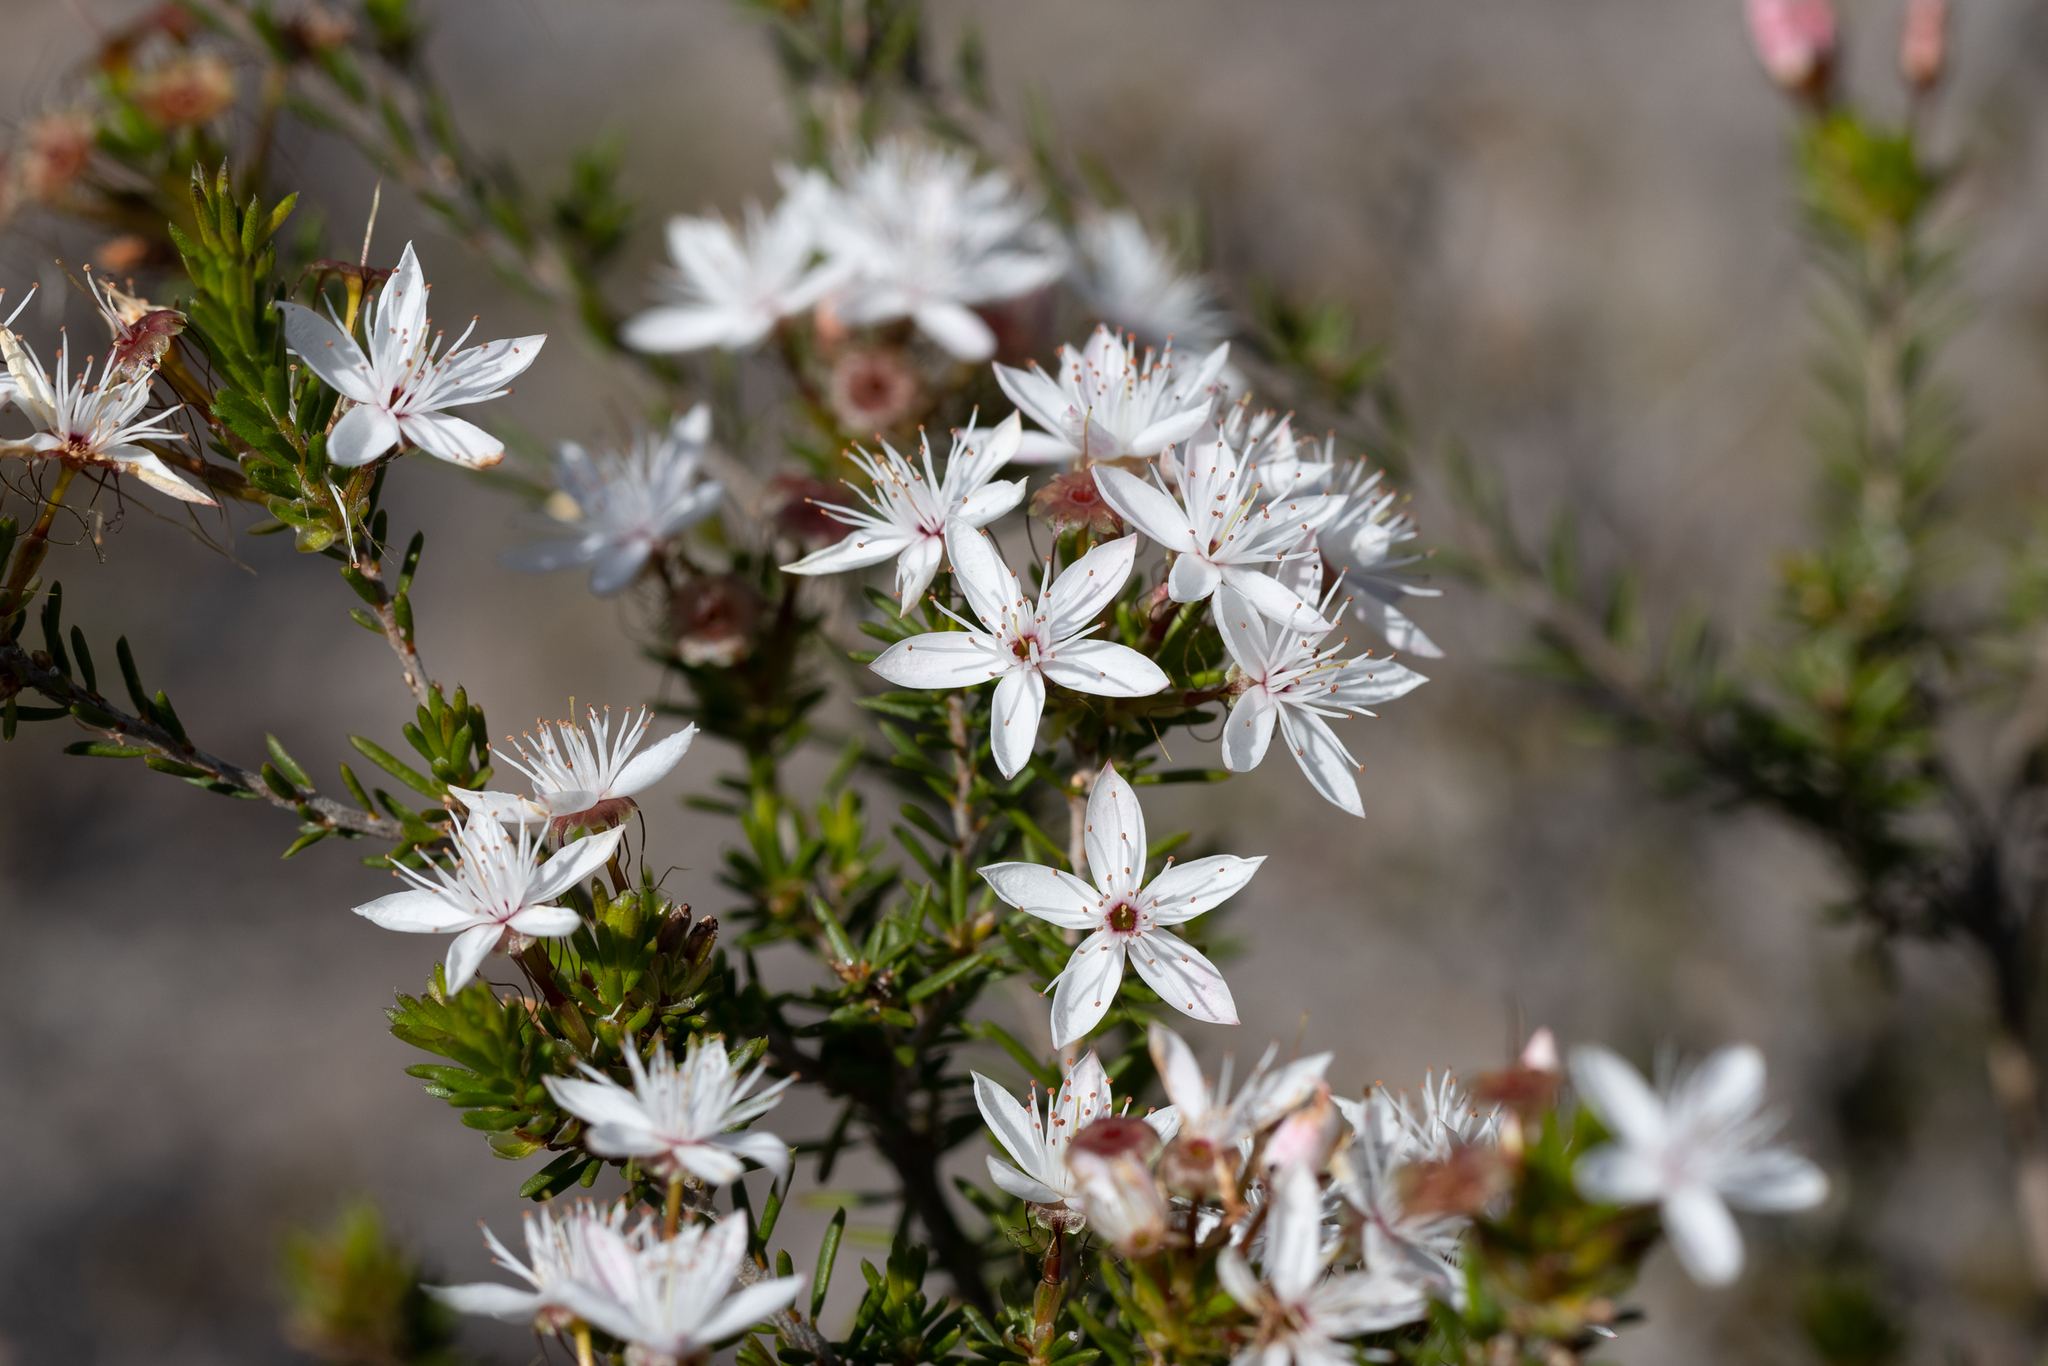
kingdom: Plantae
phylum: Tracheophyta
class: Magnoliopsida
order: Myrtales
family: Myrtaceae
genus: Calytrix
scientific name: Calytrix tetragona
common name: Common fringe myrtle
